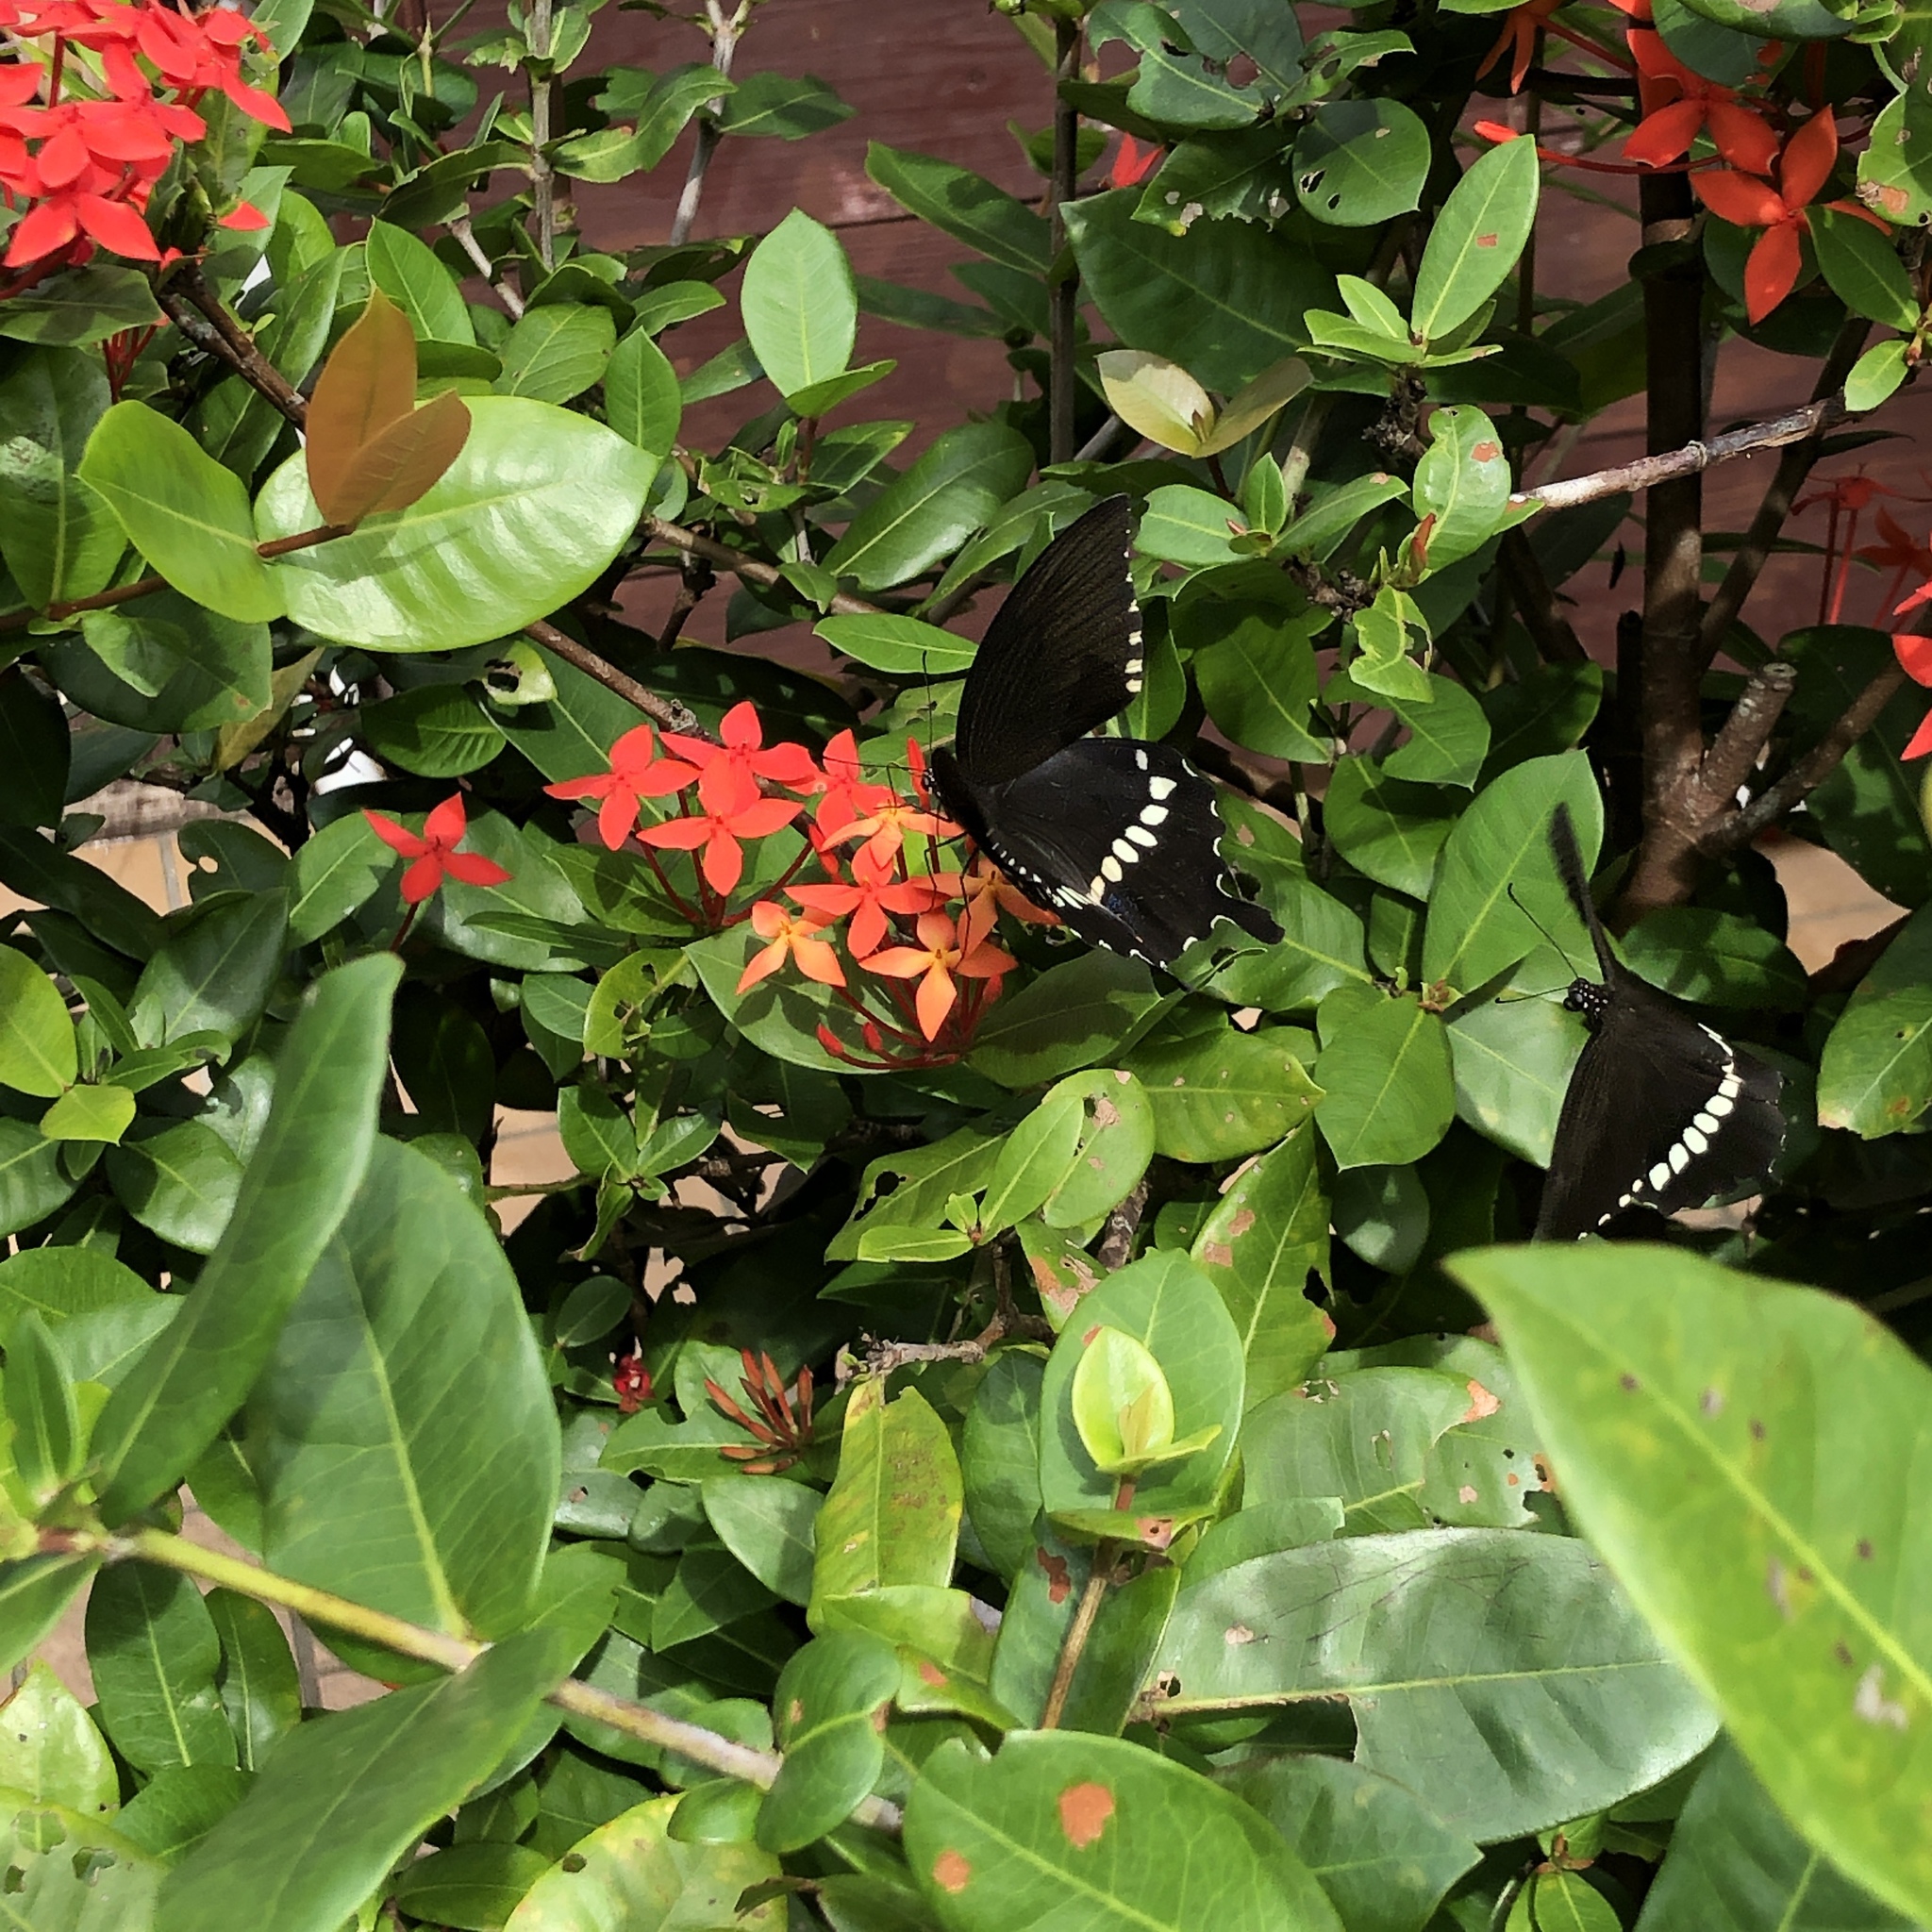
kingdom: Animalia
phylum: Arthropoda
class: Insecta
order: Lepidoptera
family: Papilionidae
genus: Papilio
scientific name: Papilio polytes
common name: Common mormon
